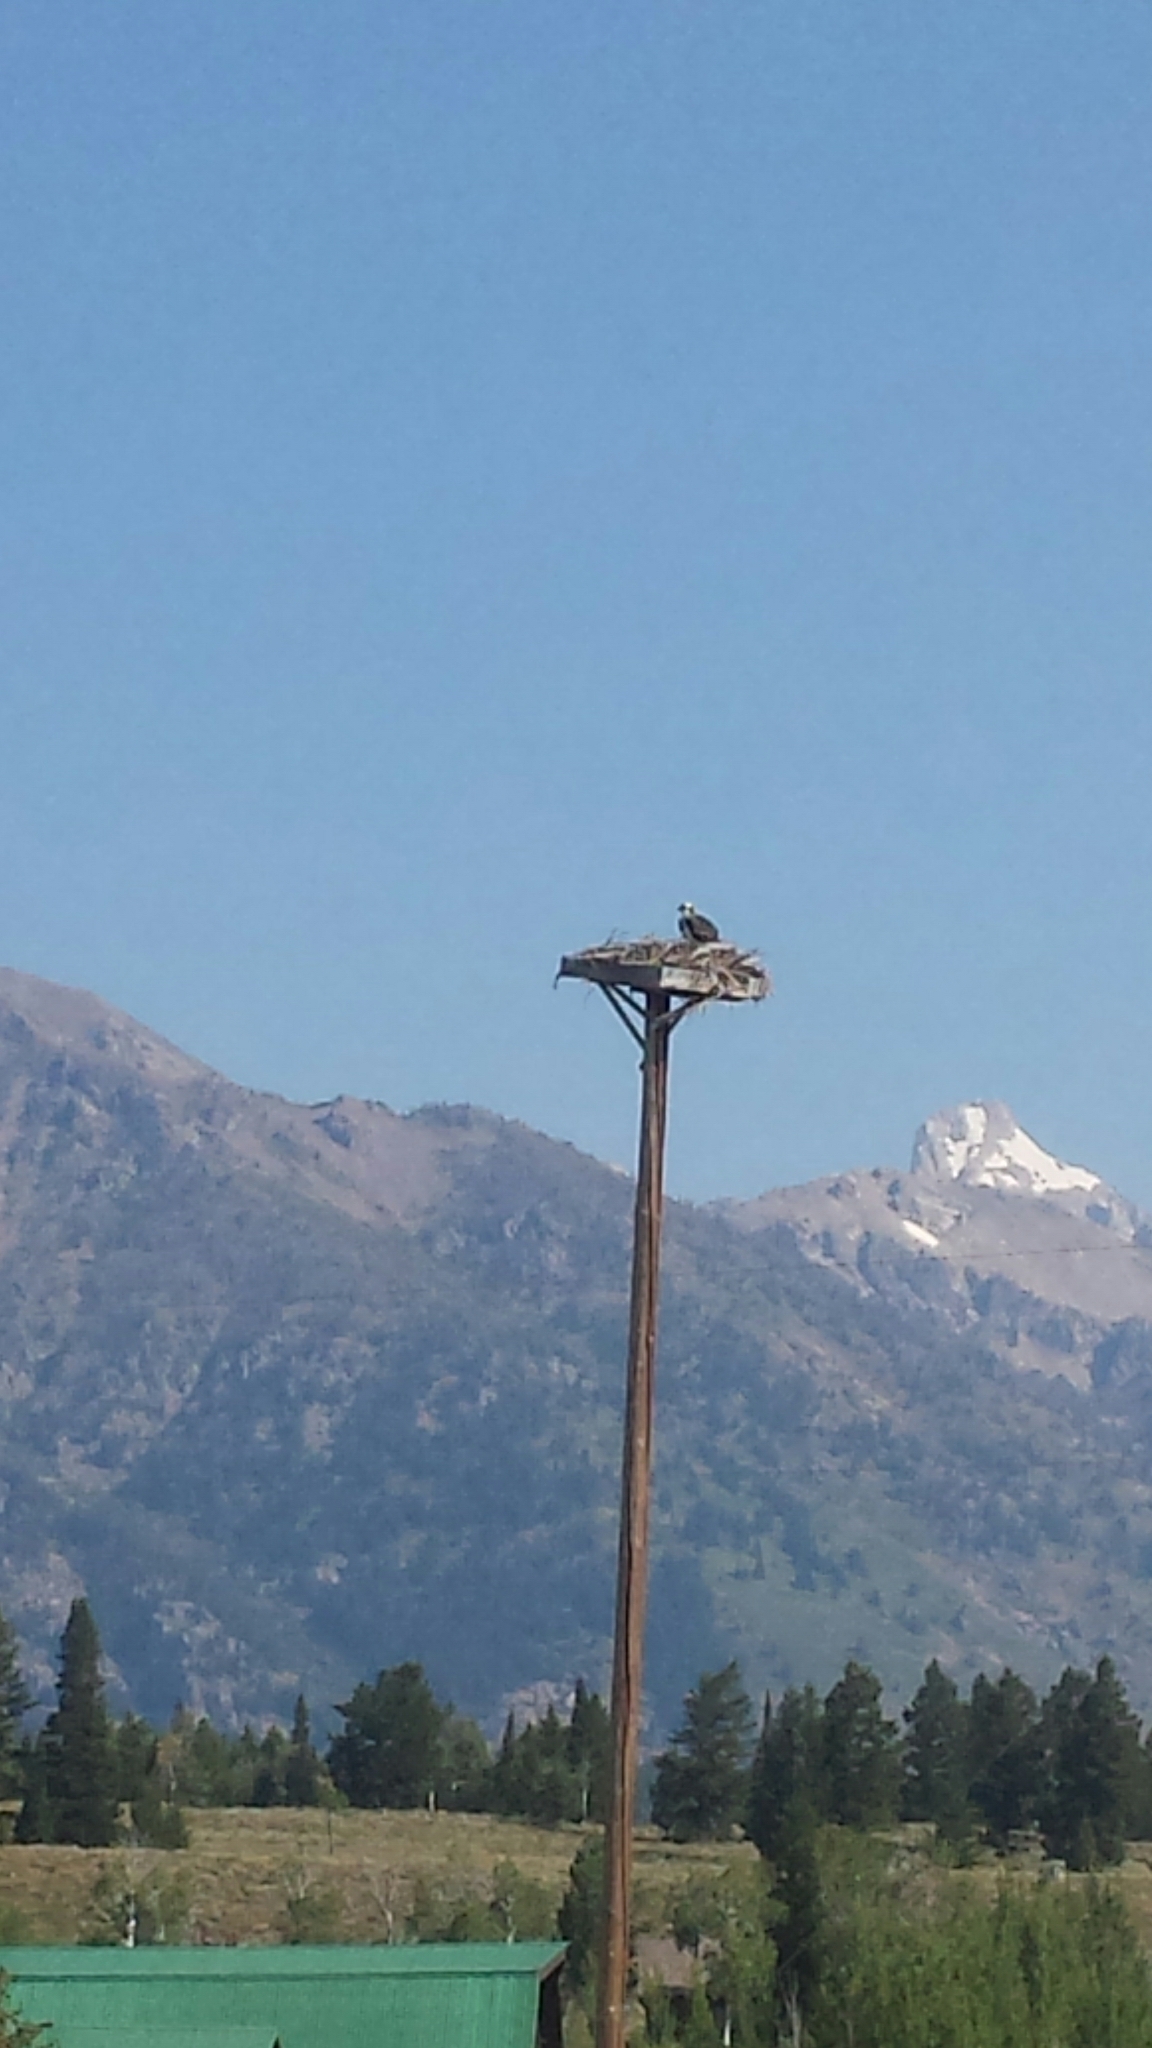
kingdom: Animalia
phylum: Chordata
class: Aves
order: Accipitriformes
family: Pandionidae
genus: Pandion
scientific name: Pandion haliaetus
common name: Osprey
